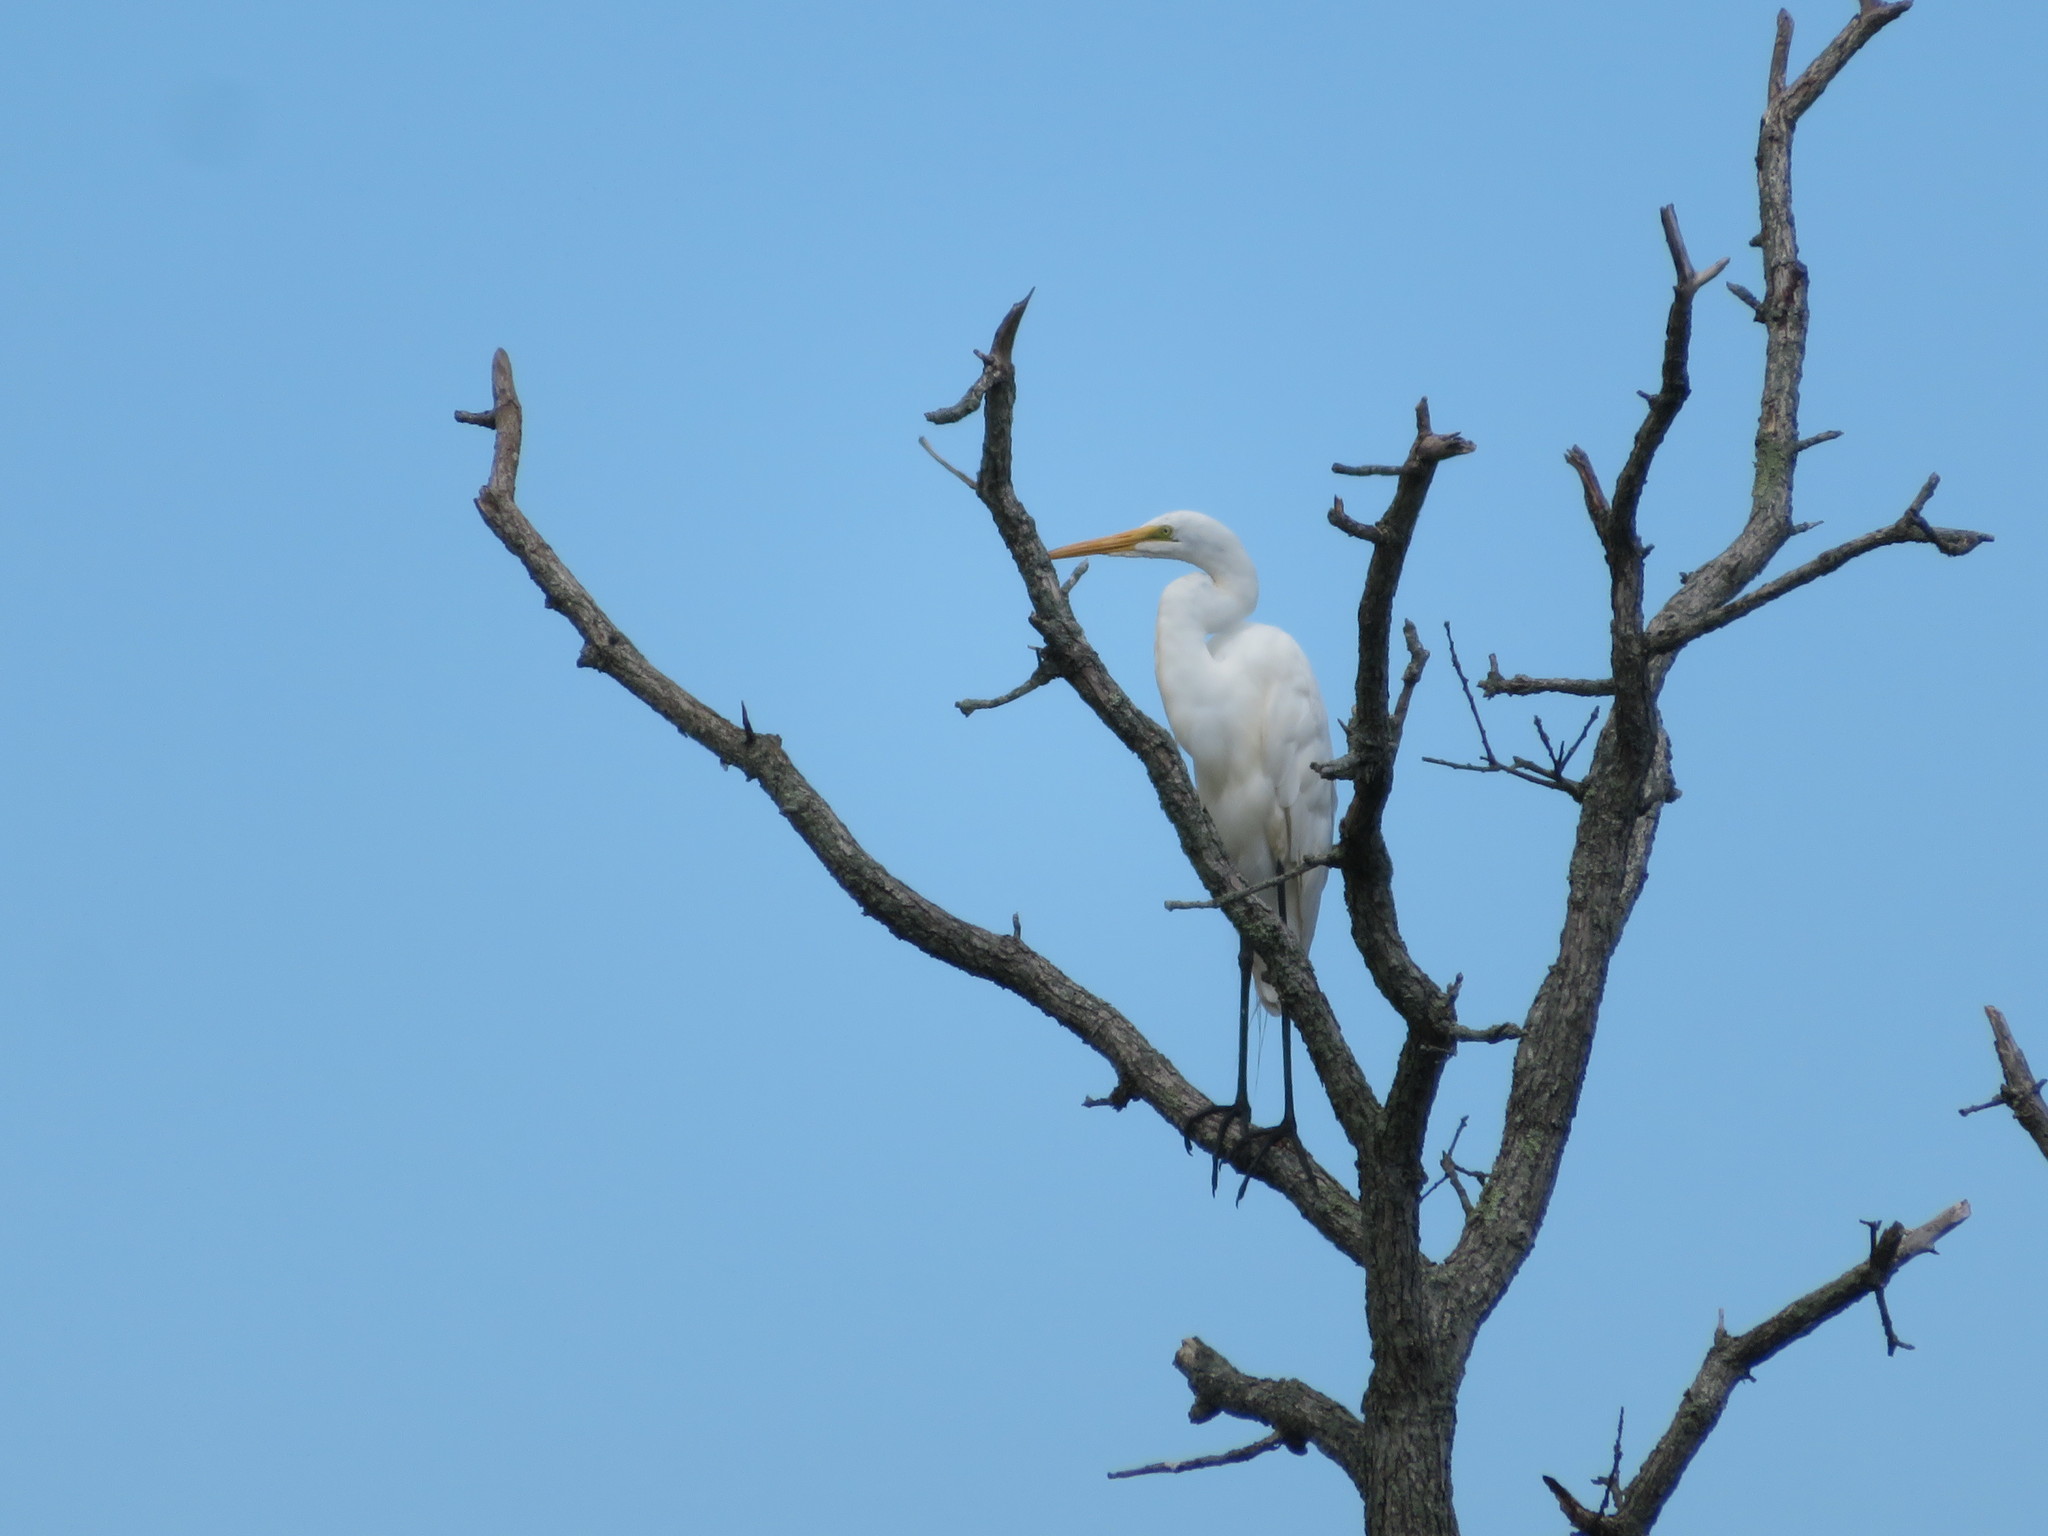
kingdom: Animalia
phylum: Chordata
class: Aves
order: Pelecaniformes
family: Ardeidae
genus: Ardea
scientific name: Ardea alba
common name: Great egret
